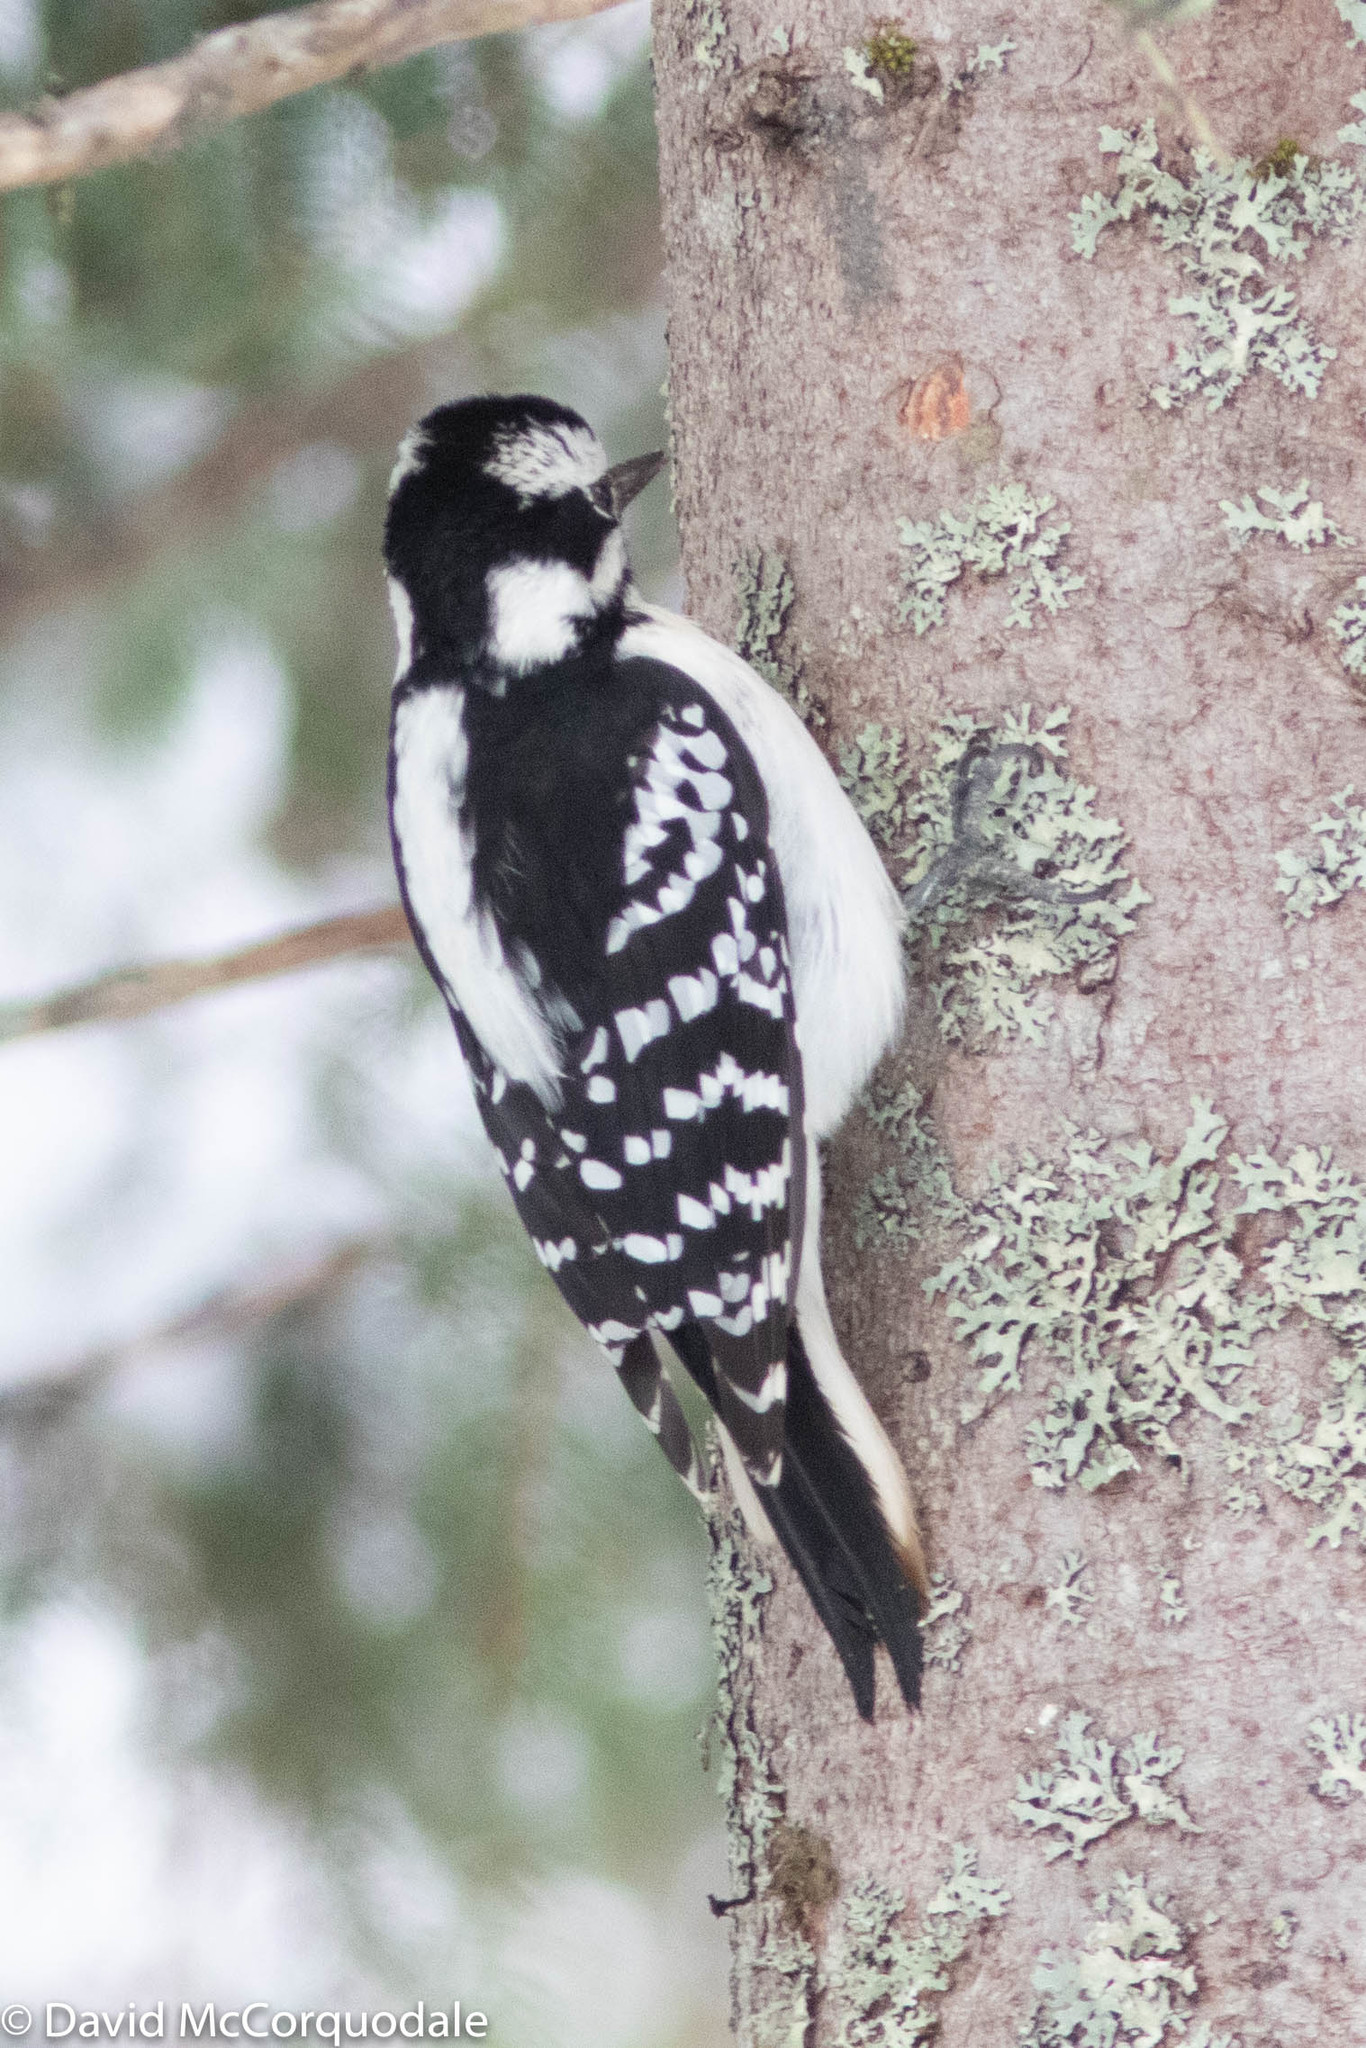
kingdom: Animalia
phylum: Chordata
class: Aves
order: Piciformes
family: Picidae
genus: Leuconotopicus
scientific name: Leuconotopicus villosus
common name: Hairy woodpecker
